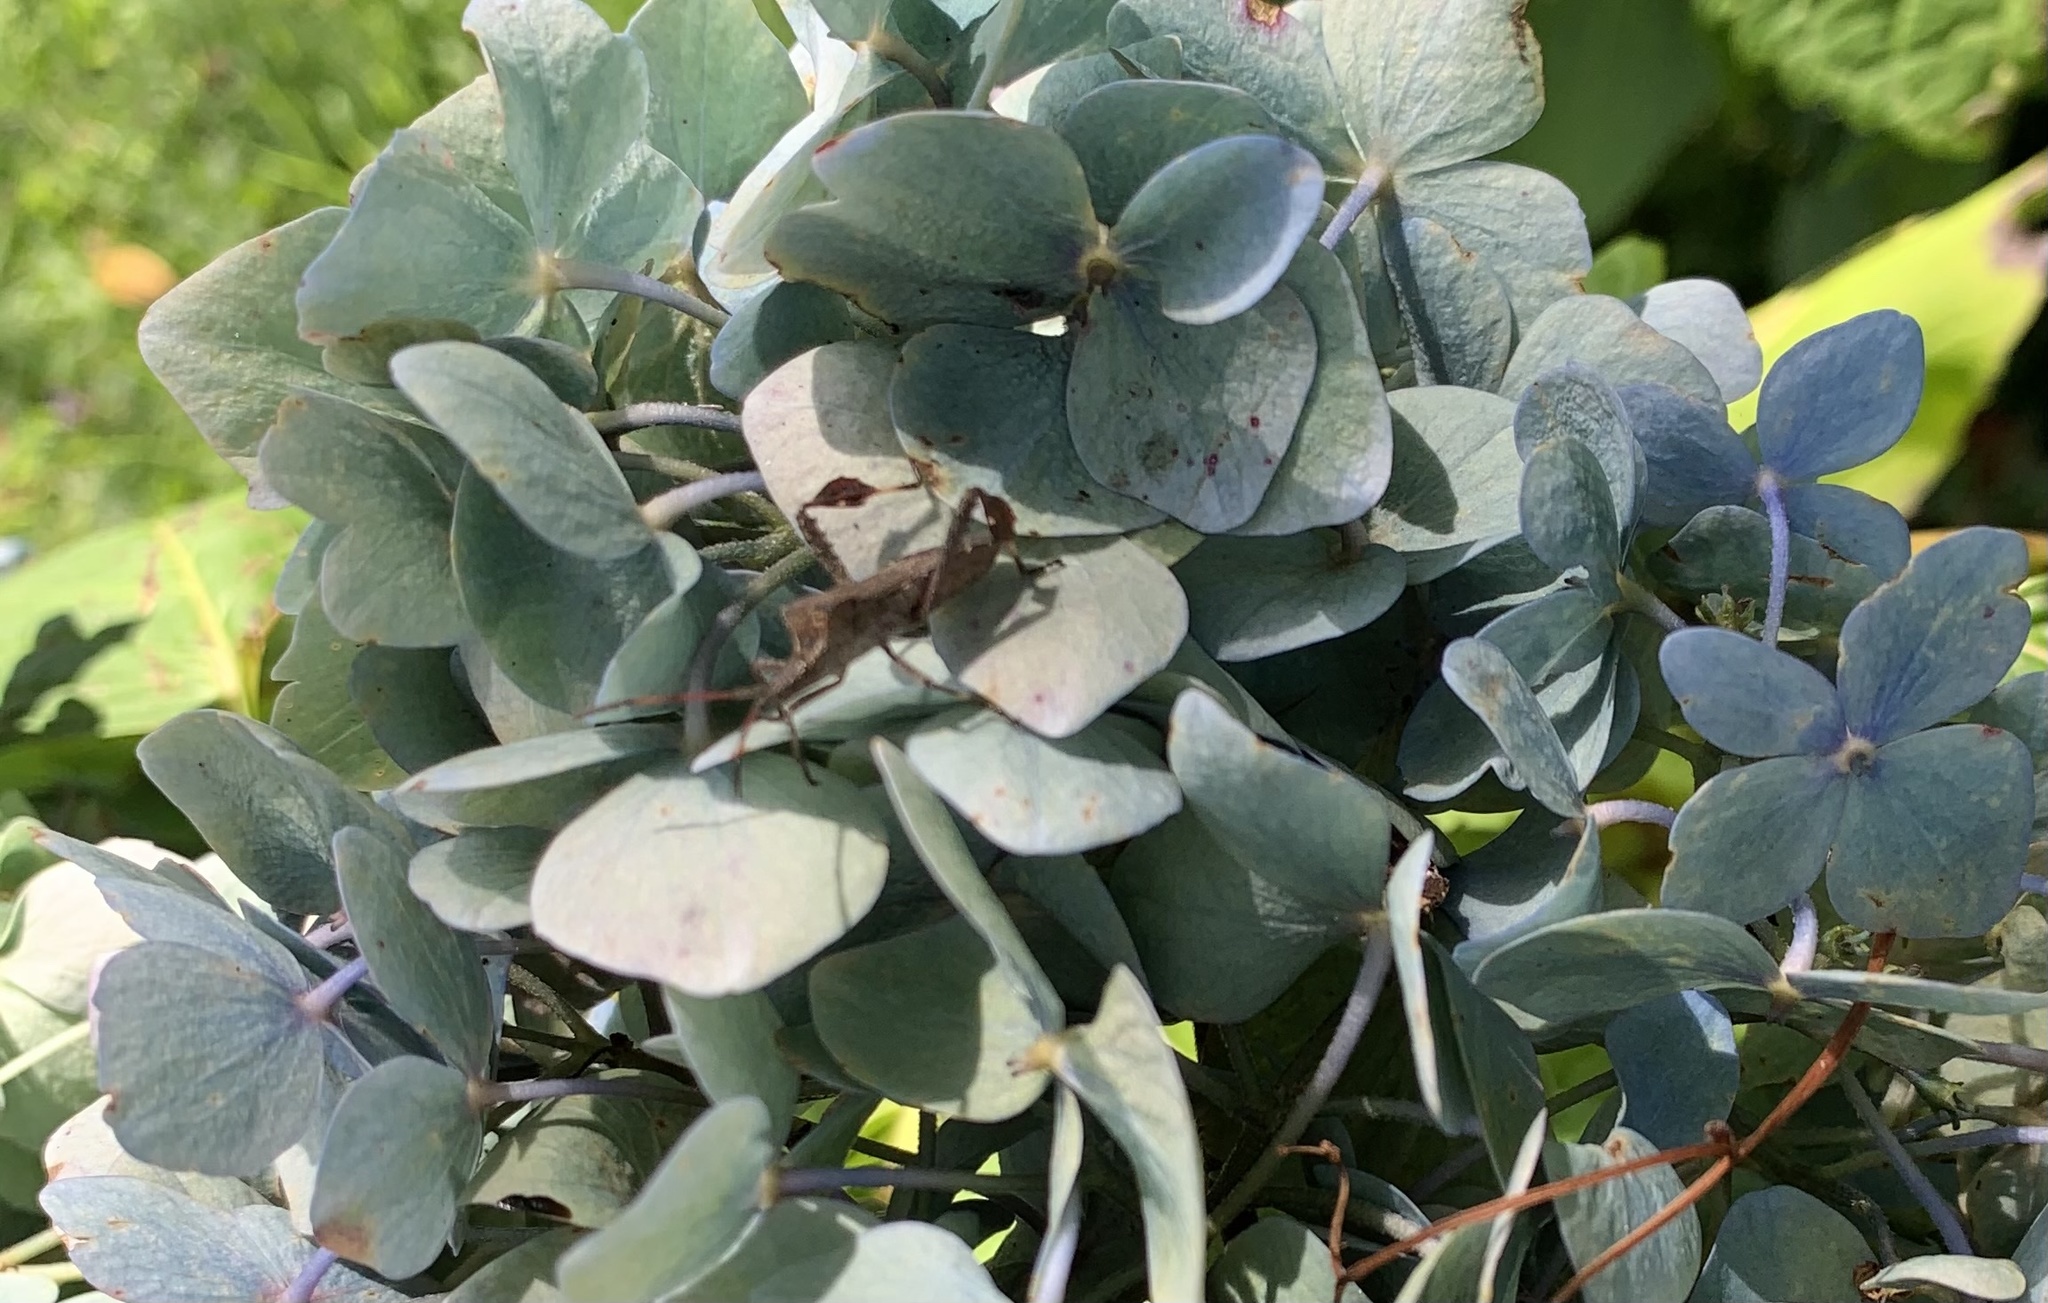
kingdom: Animalia
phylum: Arthropoda
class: Insecta
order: Hemiptera
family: Coreidae
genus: Leptoglossus
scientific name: Leptoglossus chilensis
